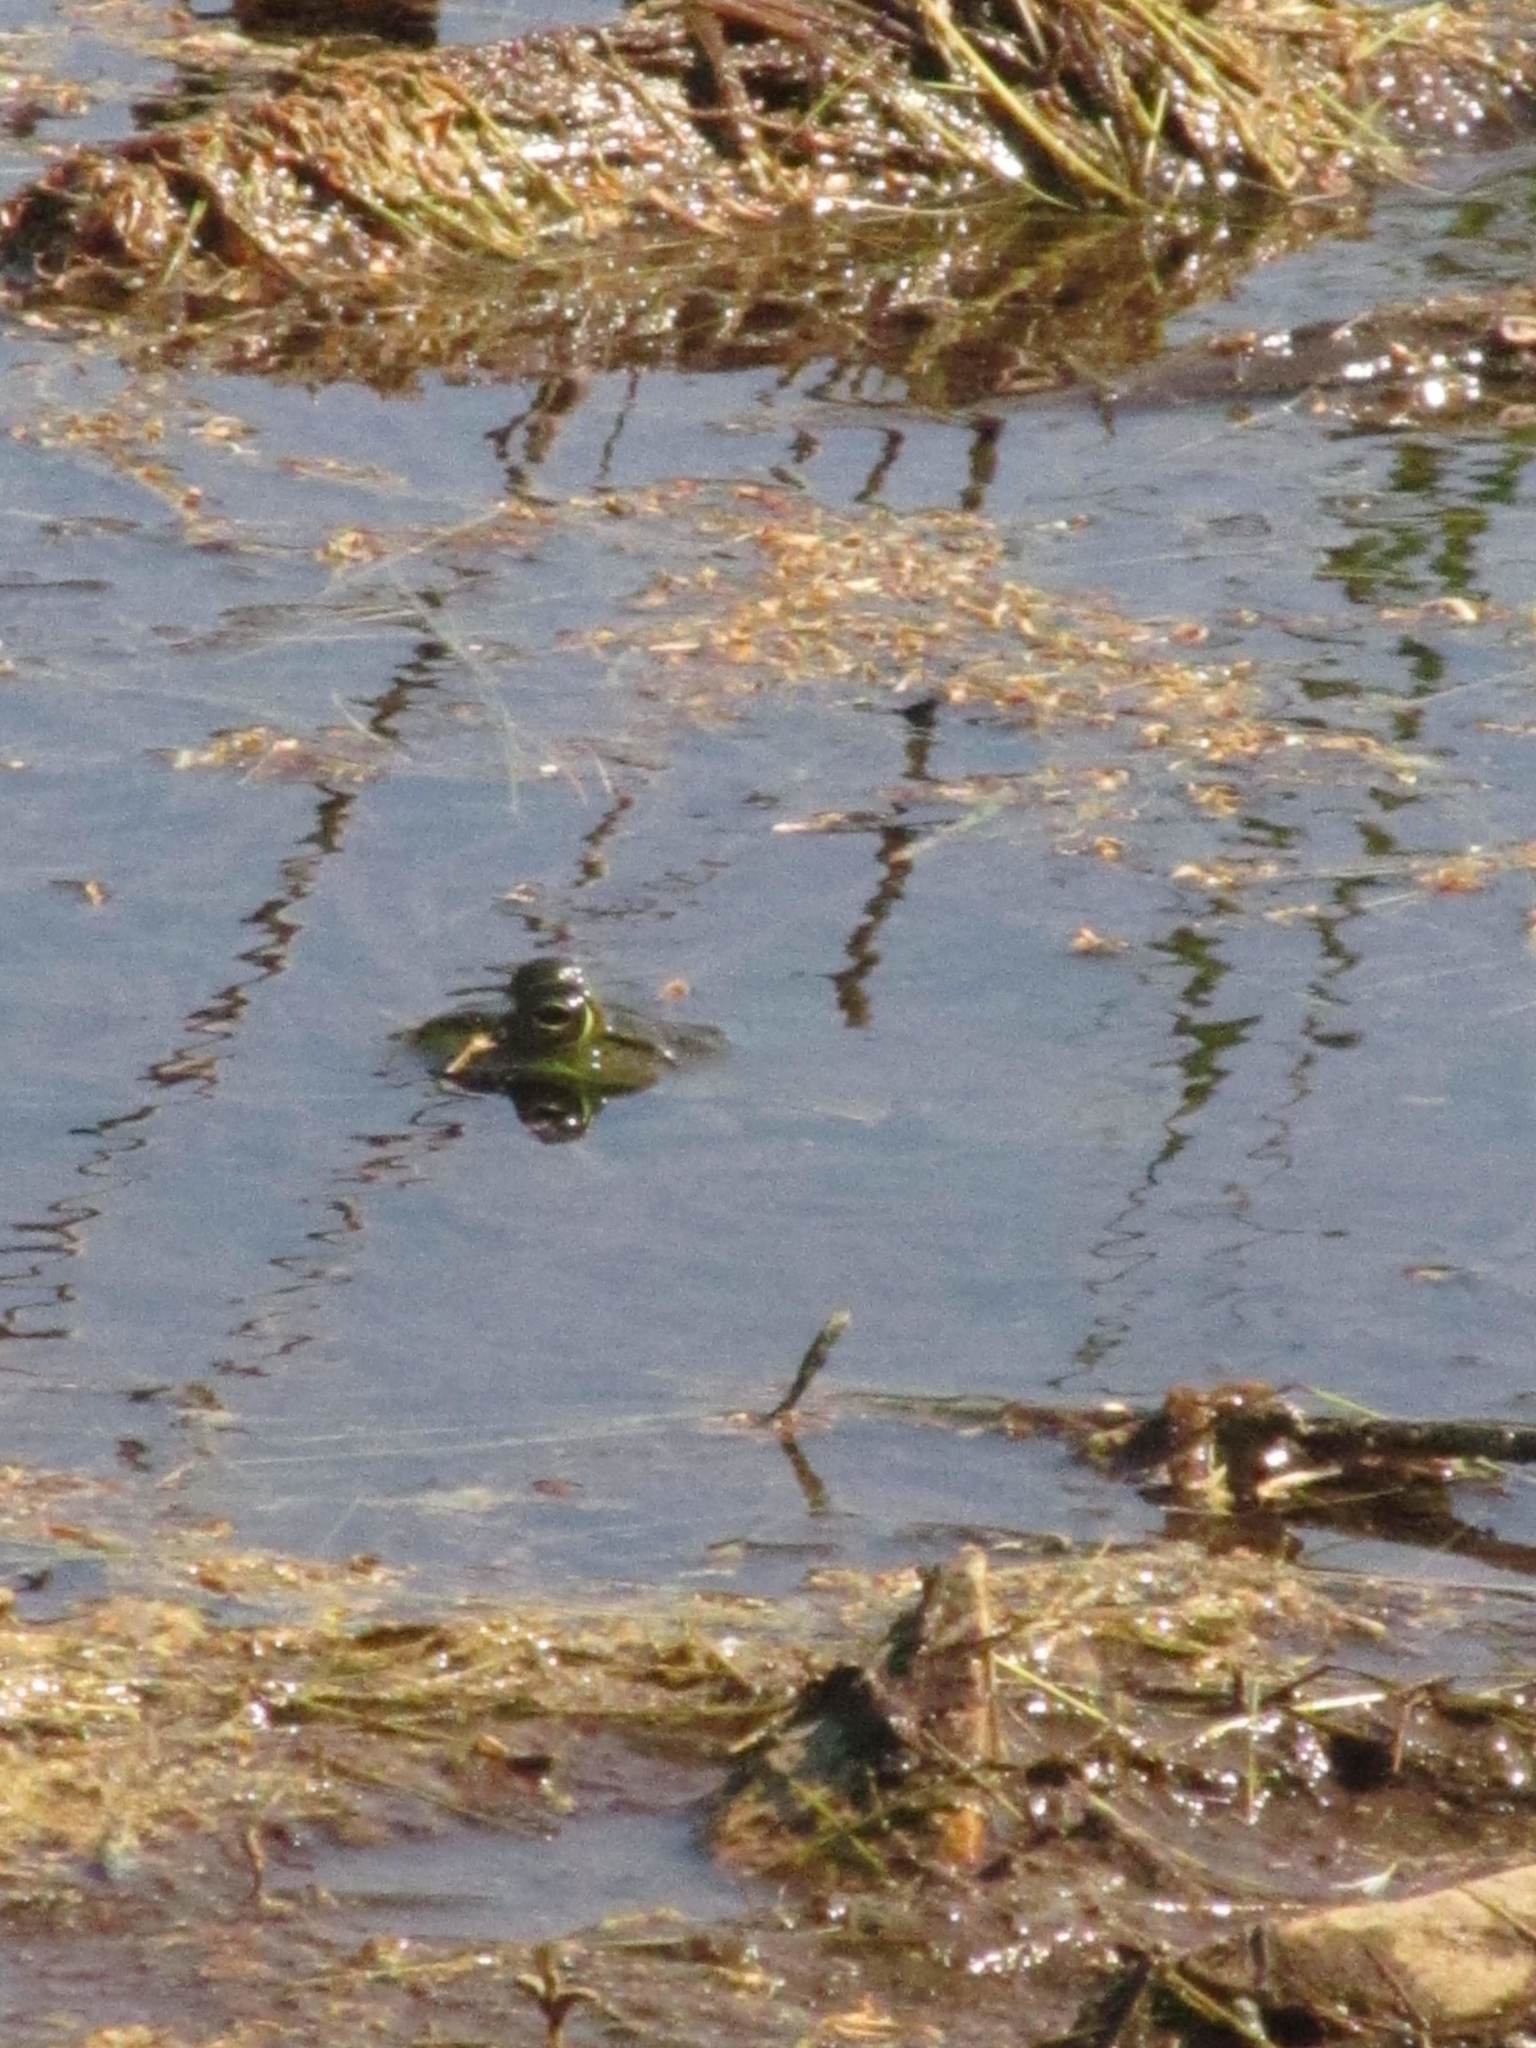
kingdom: Animalia
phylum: Chordata
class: Amphibia
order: Anura
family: Ranidae
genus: Lithobates
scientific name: Lithobates
